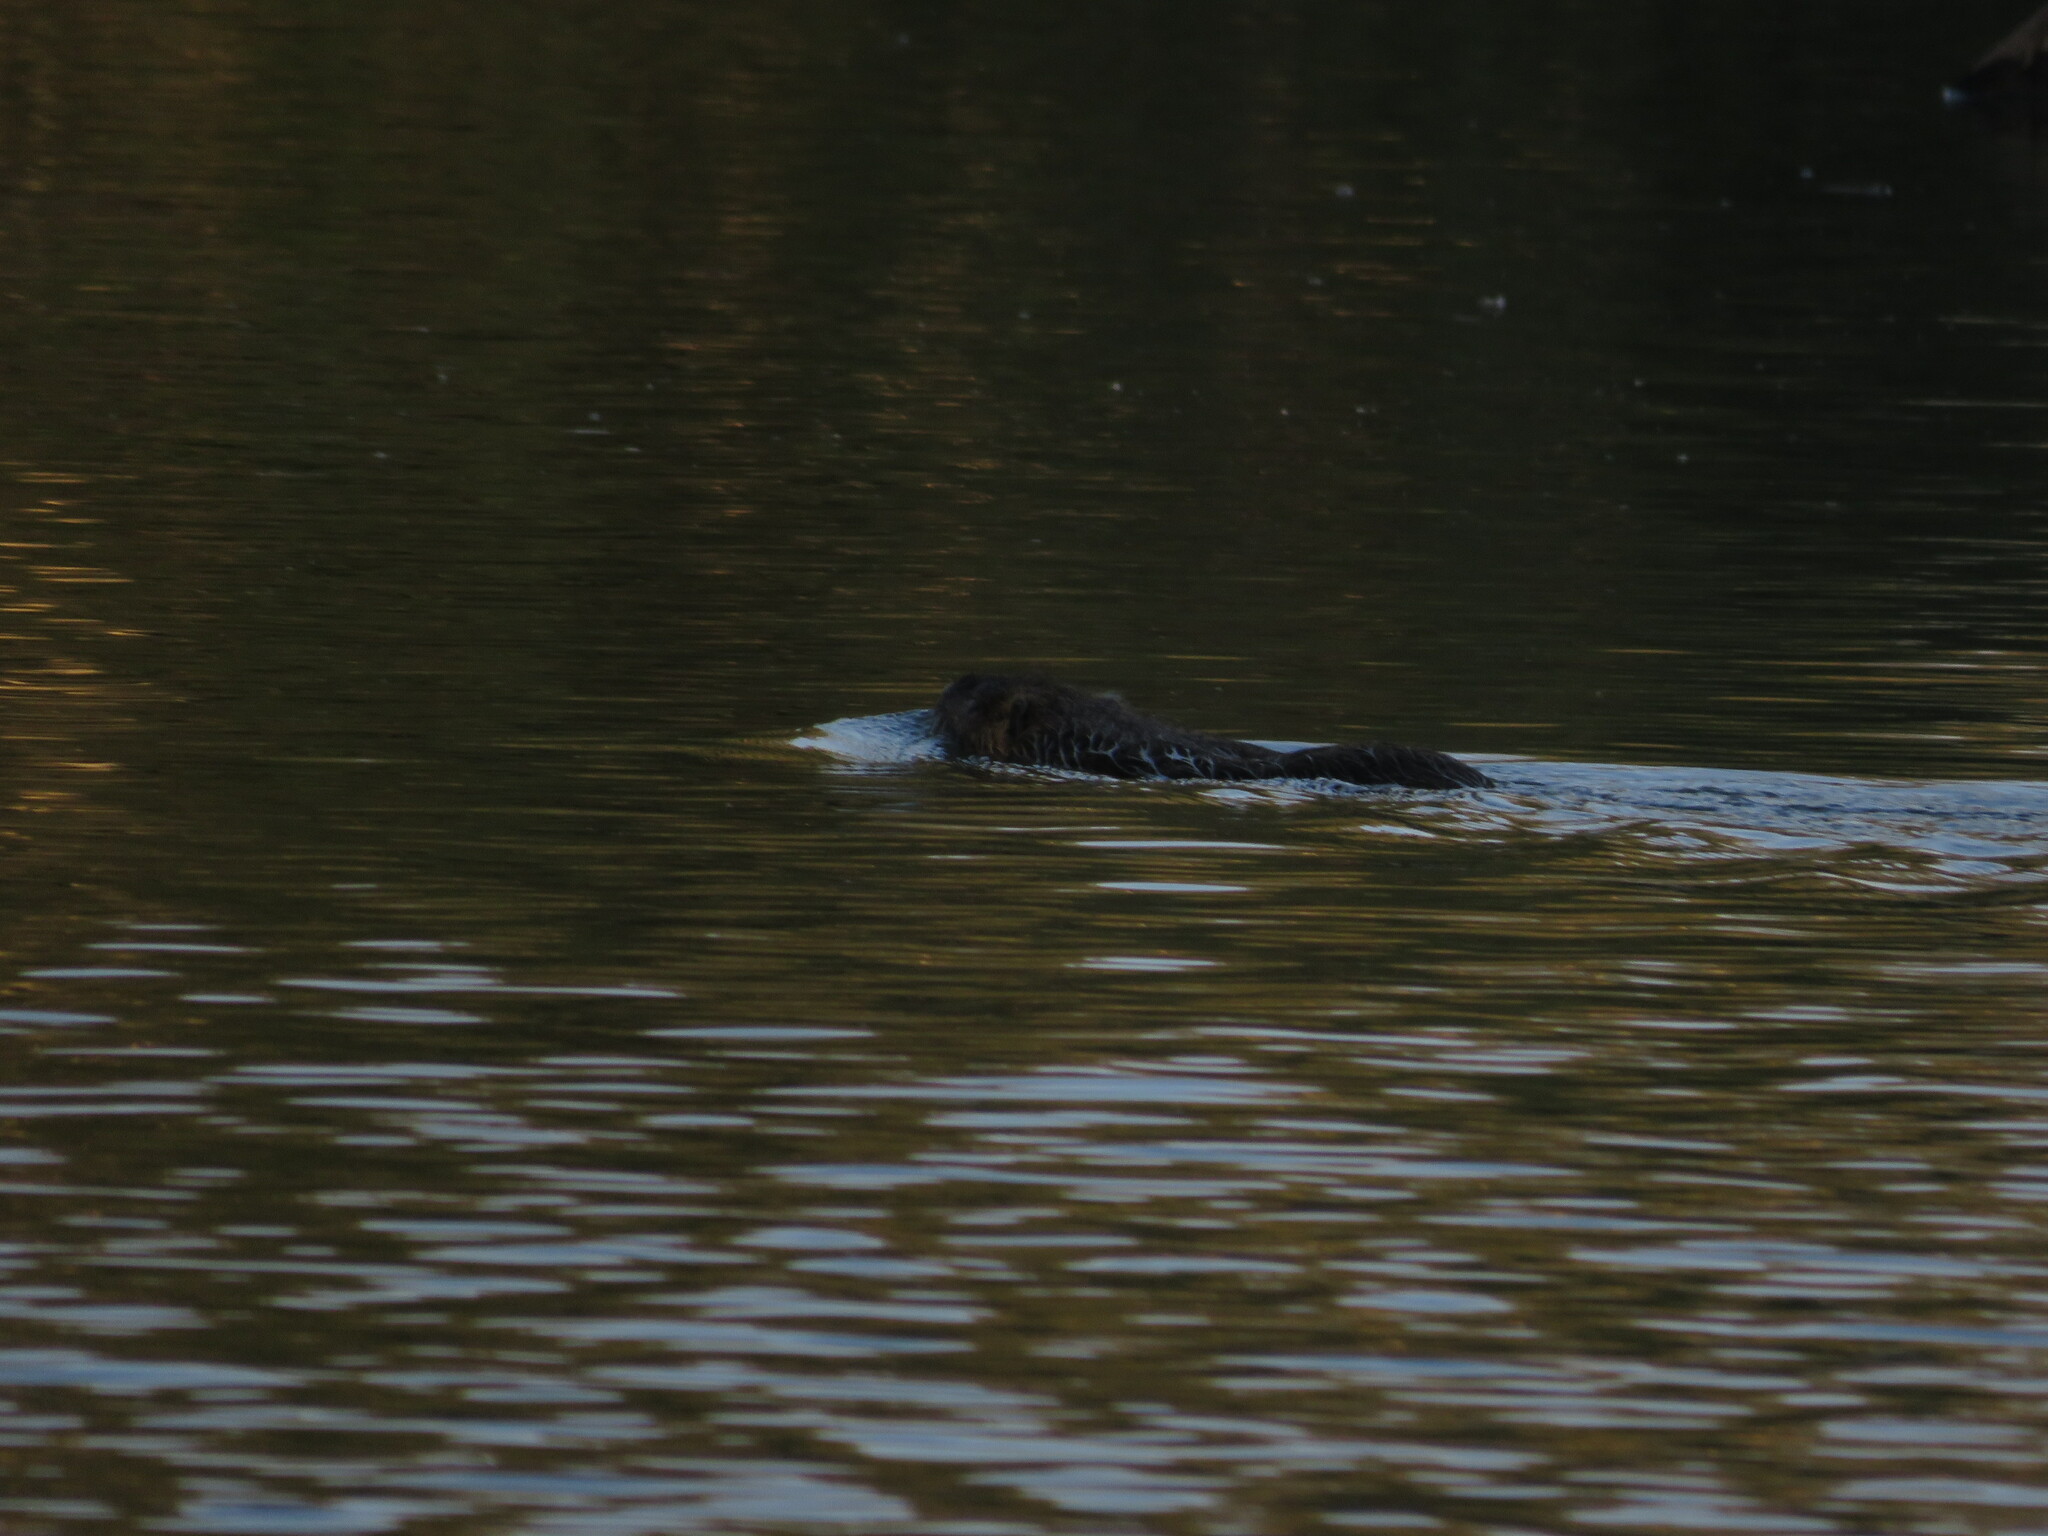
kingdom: Animalia
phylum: Chordata
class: Mammalia
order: Rodentia
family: Myocastoridae
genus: Myocastor
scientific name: Myocastor coypus
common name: Coypu
